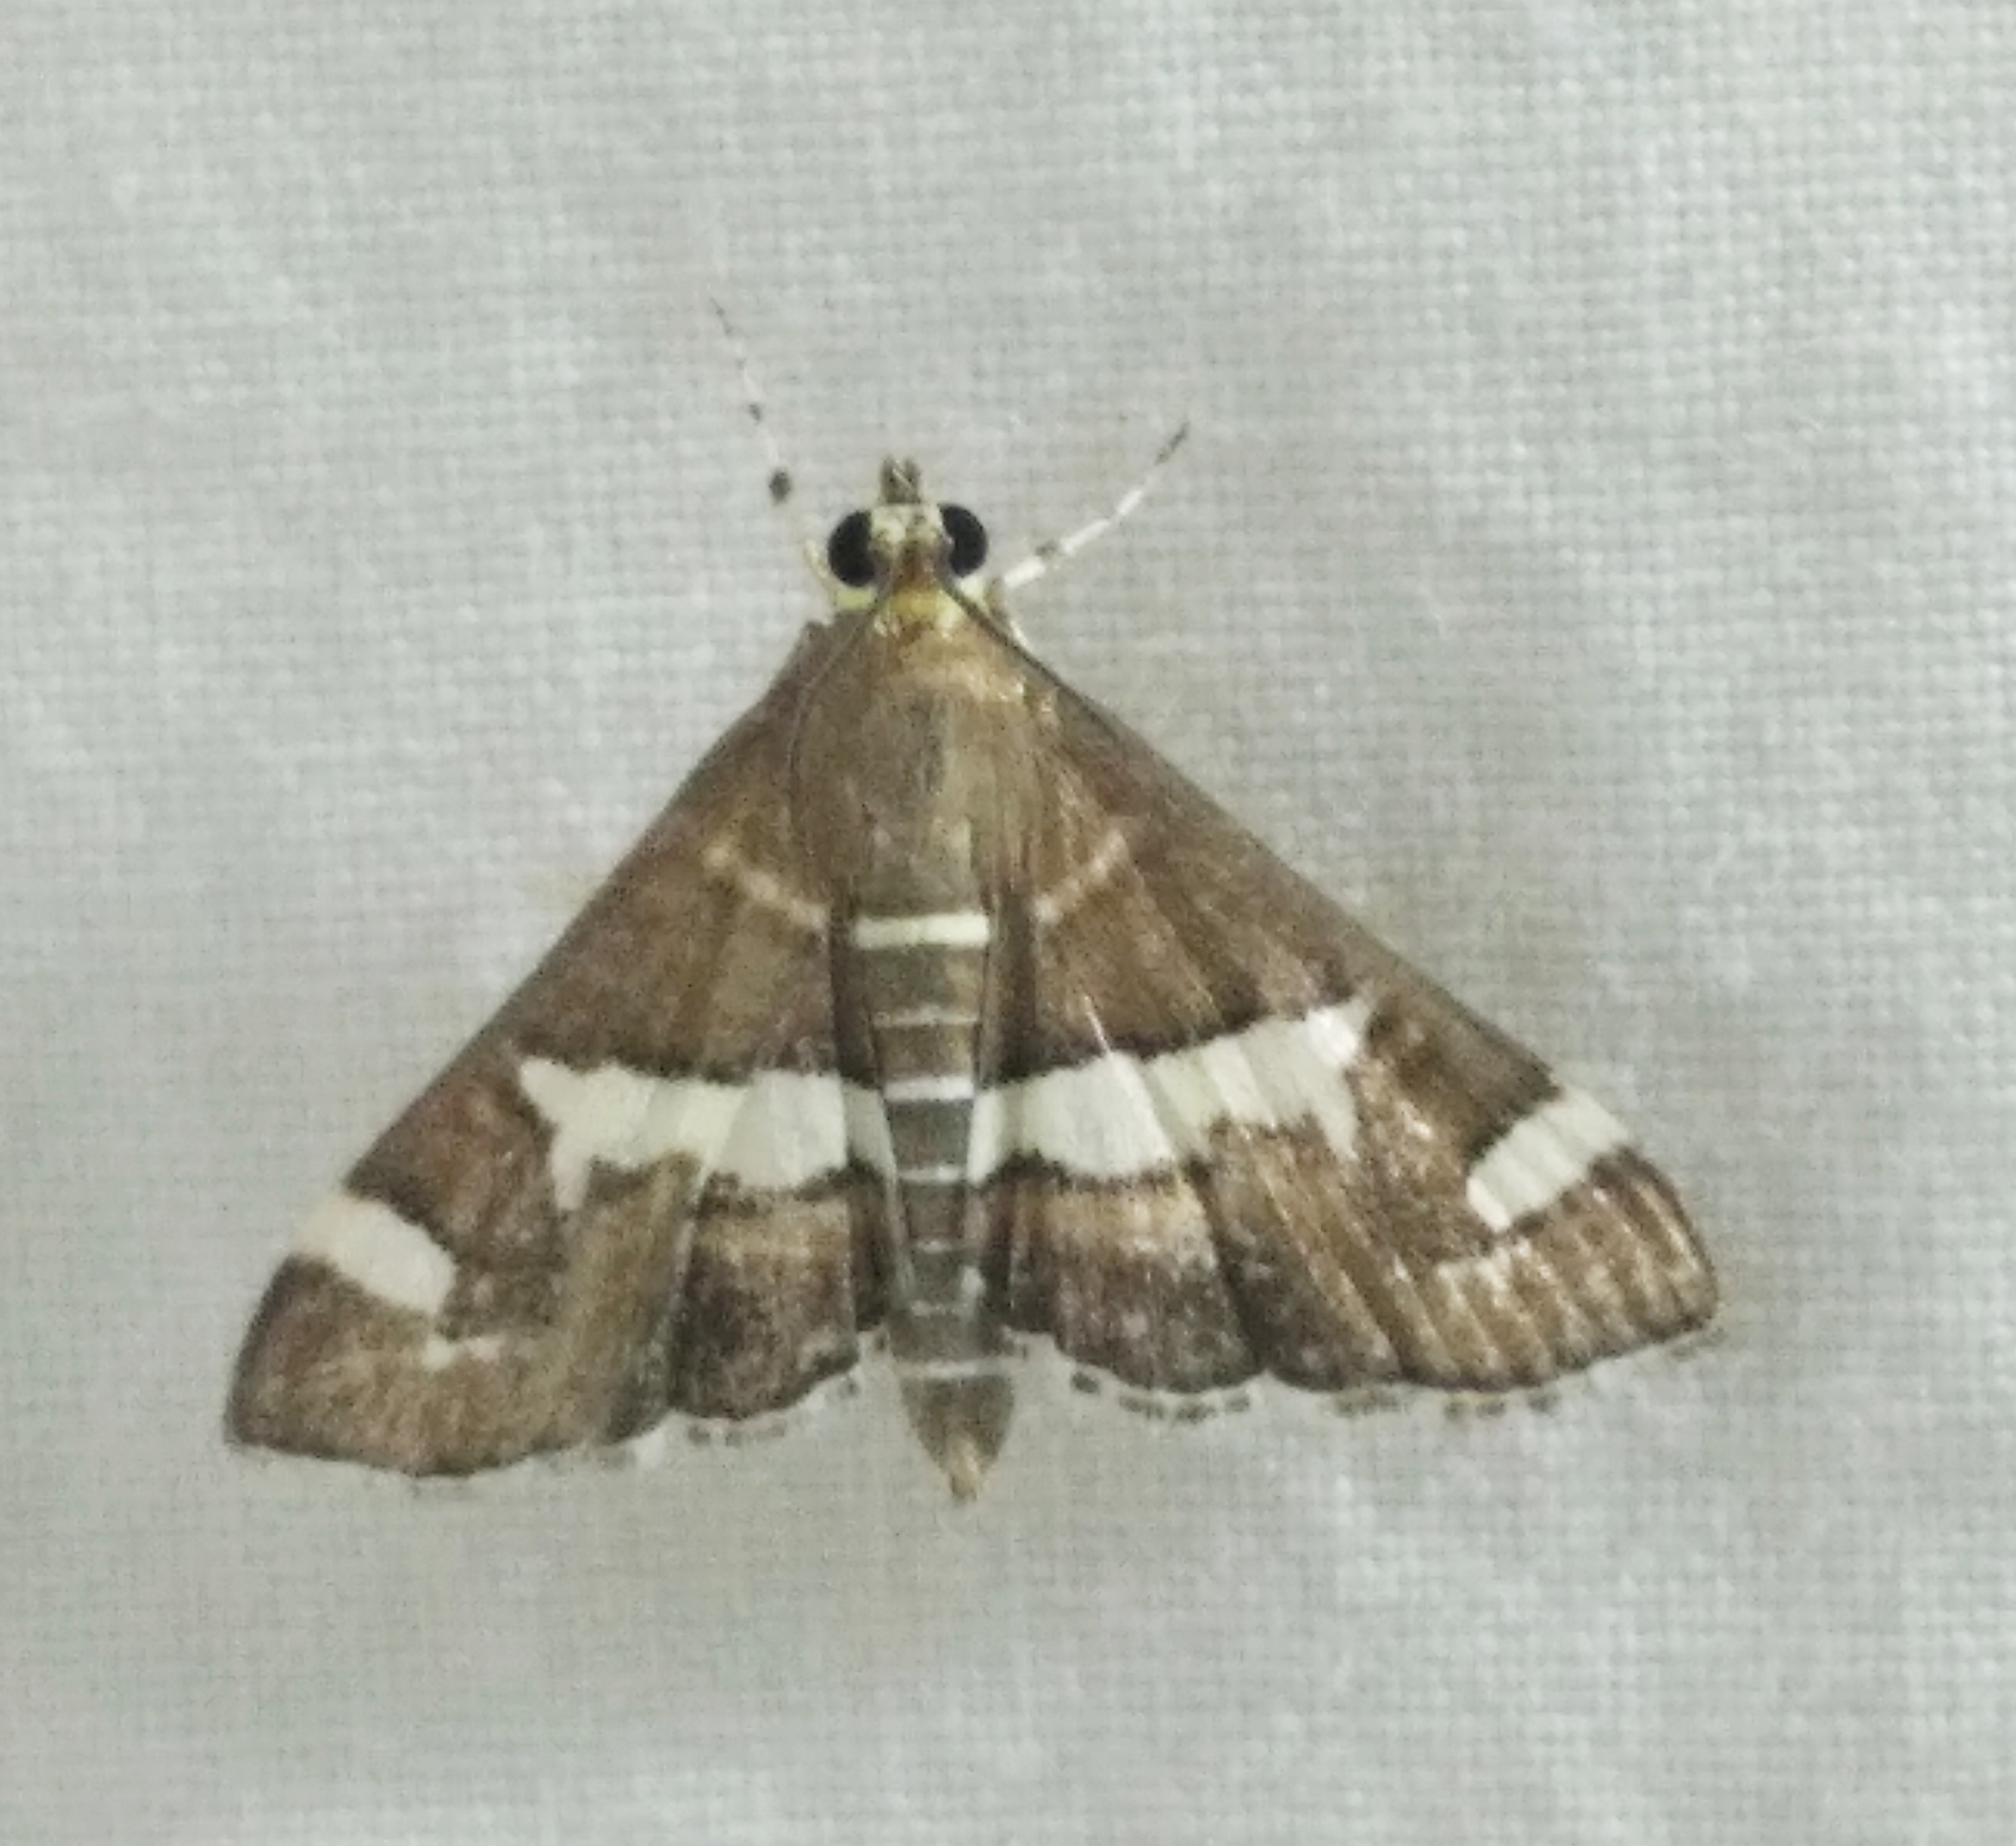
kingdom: Animalia
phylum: Arthropoda
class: Insecta
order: Lepidoptera
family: Crambidae
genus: Spoladea
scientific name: Spoladea recurvalis
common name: Beet webworm moth
